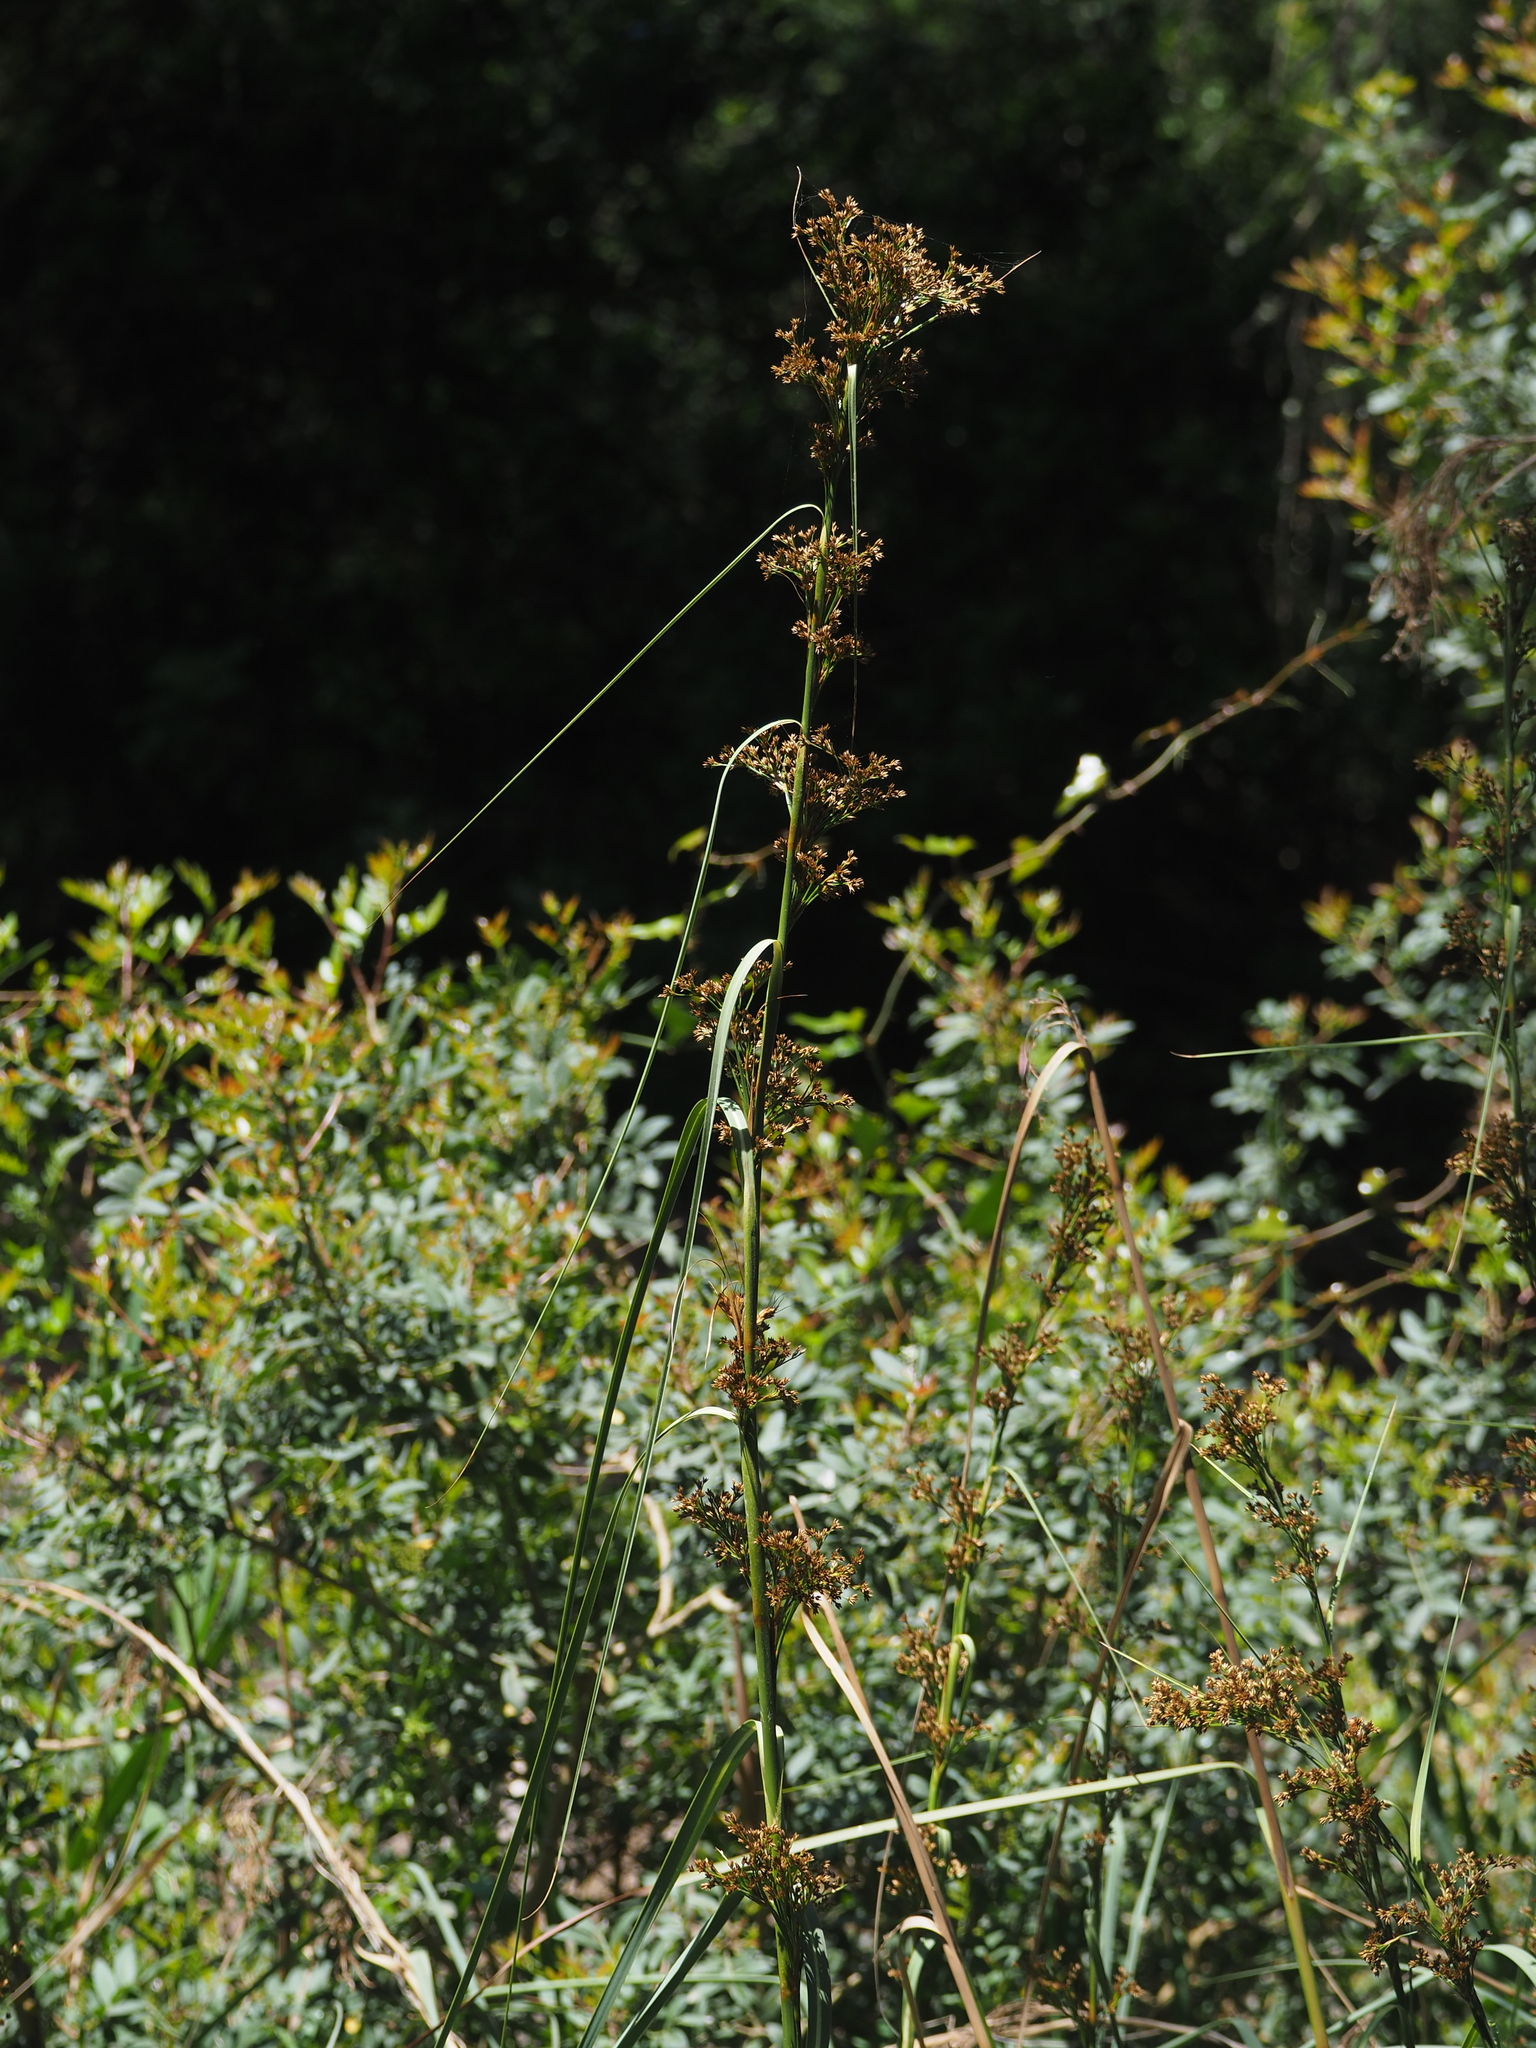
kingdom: Plantae
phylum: Tracheophyta
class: Liliopsida
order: Poales
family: Cyperaceae
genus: Cladium
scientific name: Cladium mariscus
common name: Great fen-sedge
